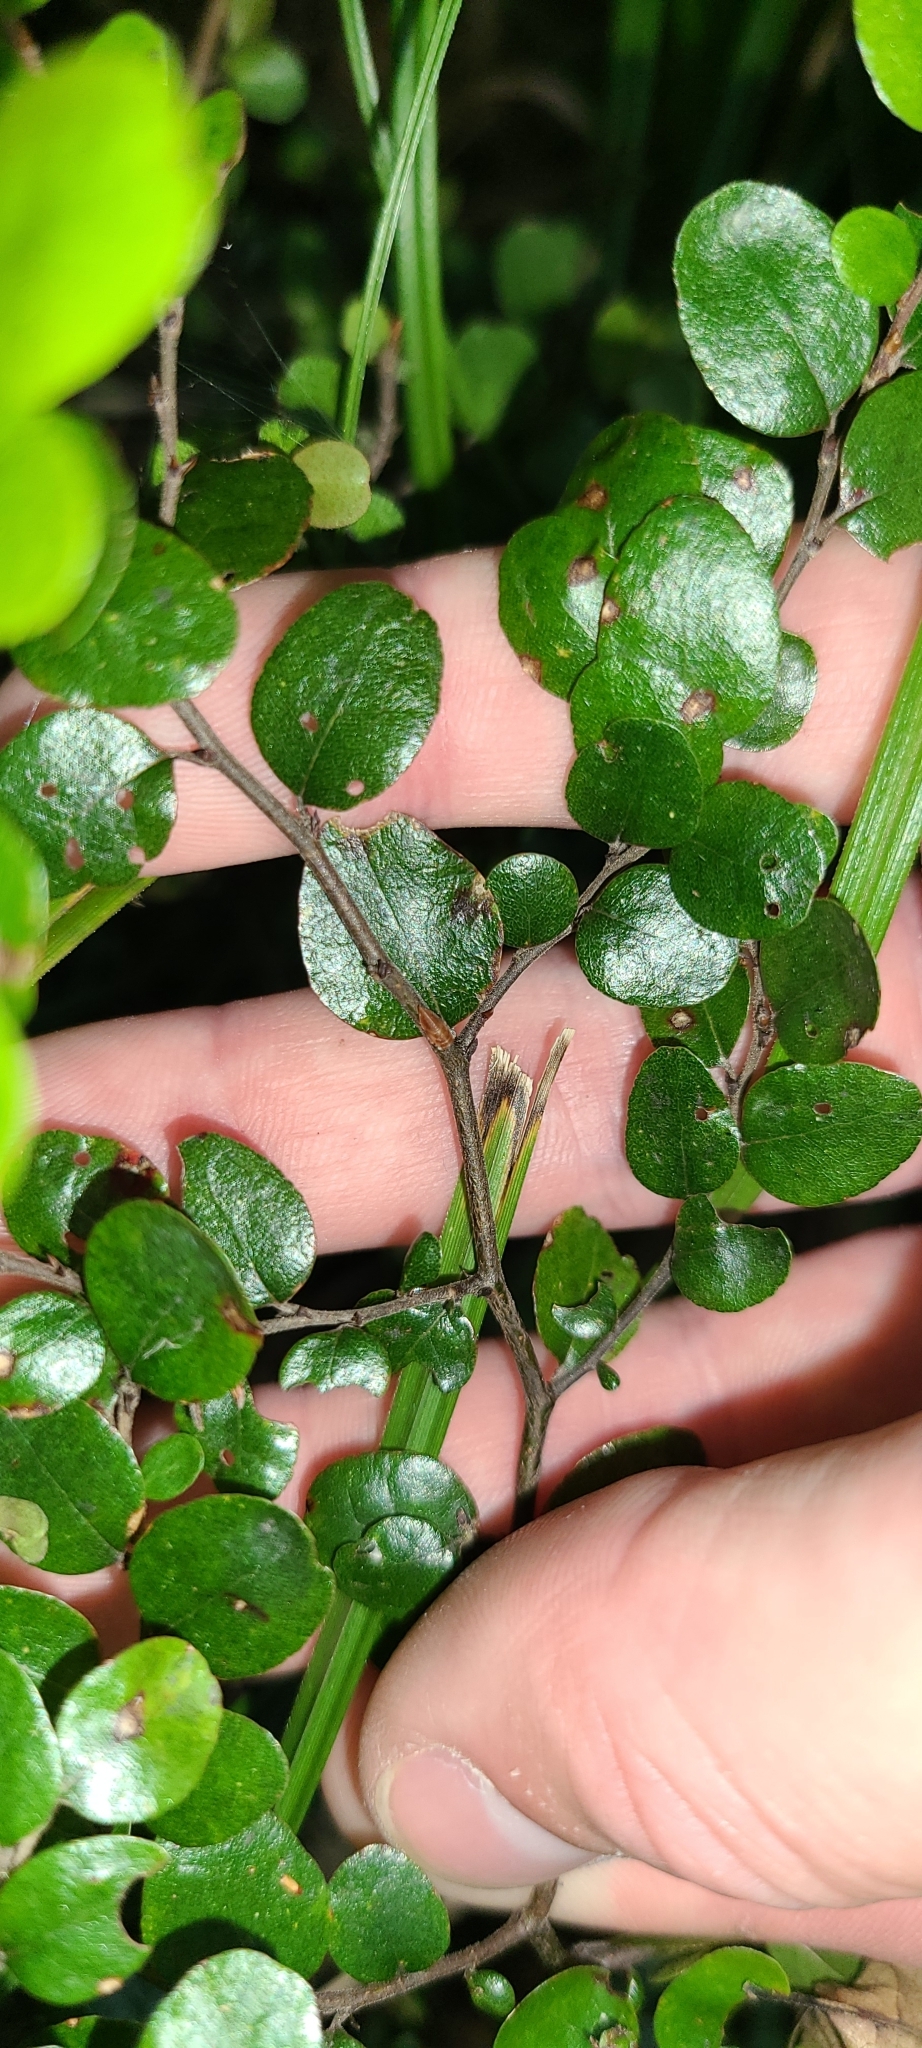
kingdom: Plantae
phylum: Tracheophyta
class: Magnoliopsida
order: Fagales
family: Nothofagaceae
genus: Nothofagus
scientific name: Nothofagus solandri
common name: Black beech
